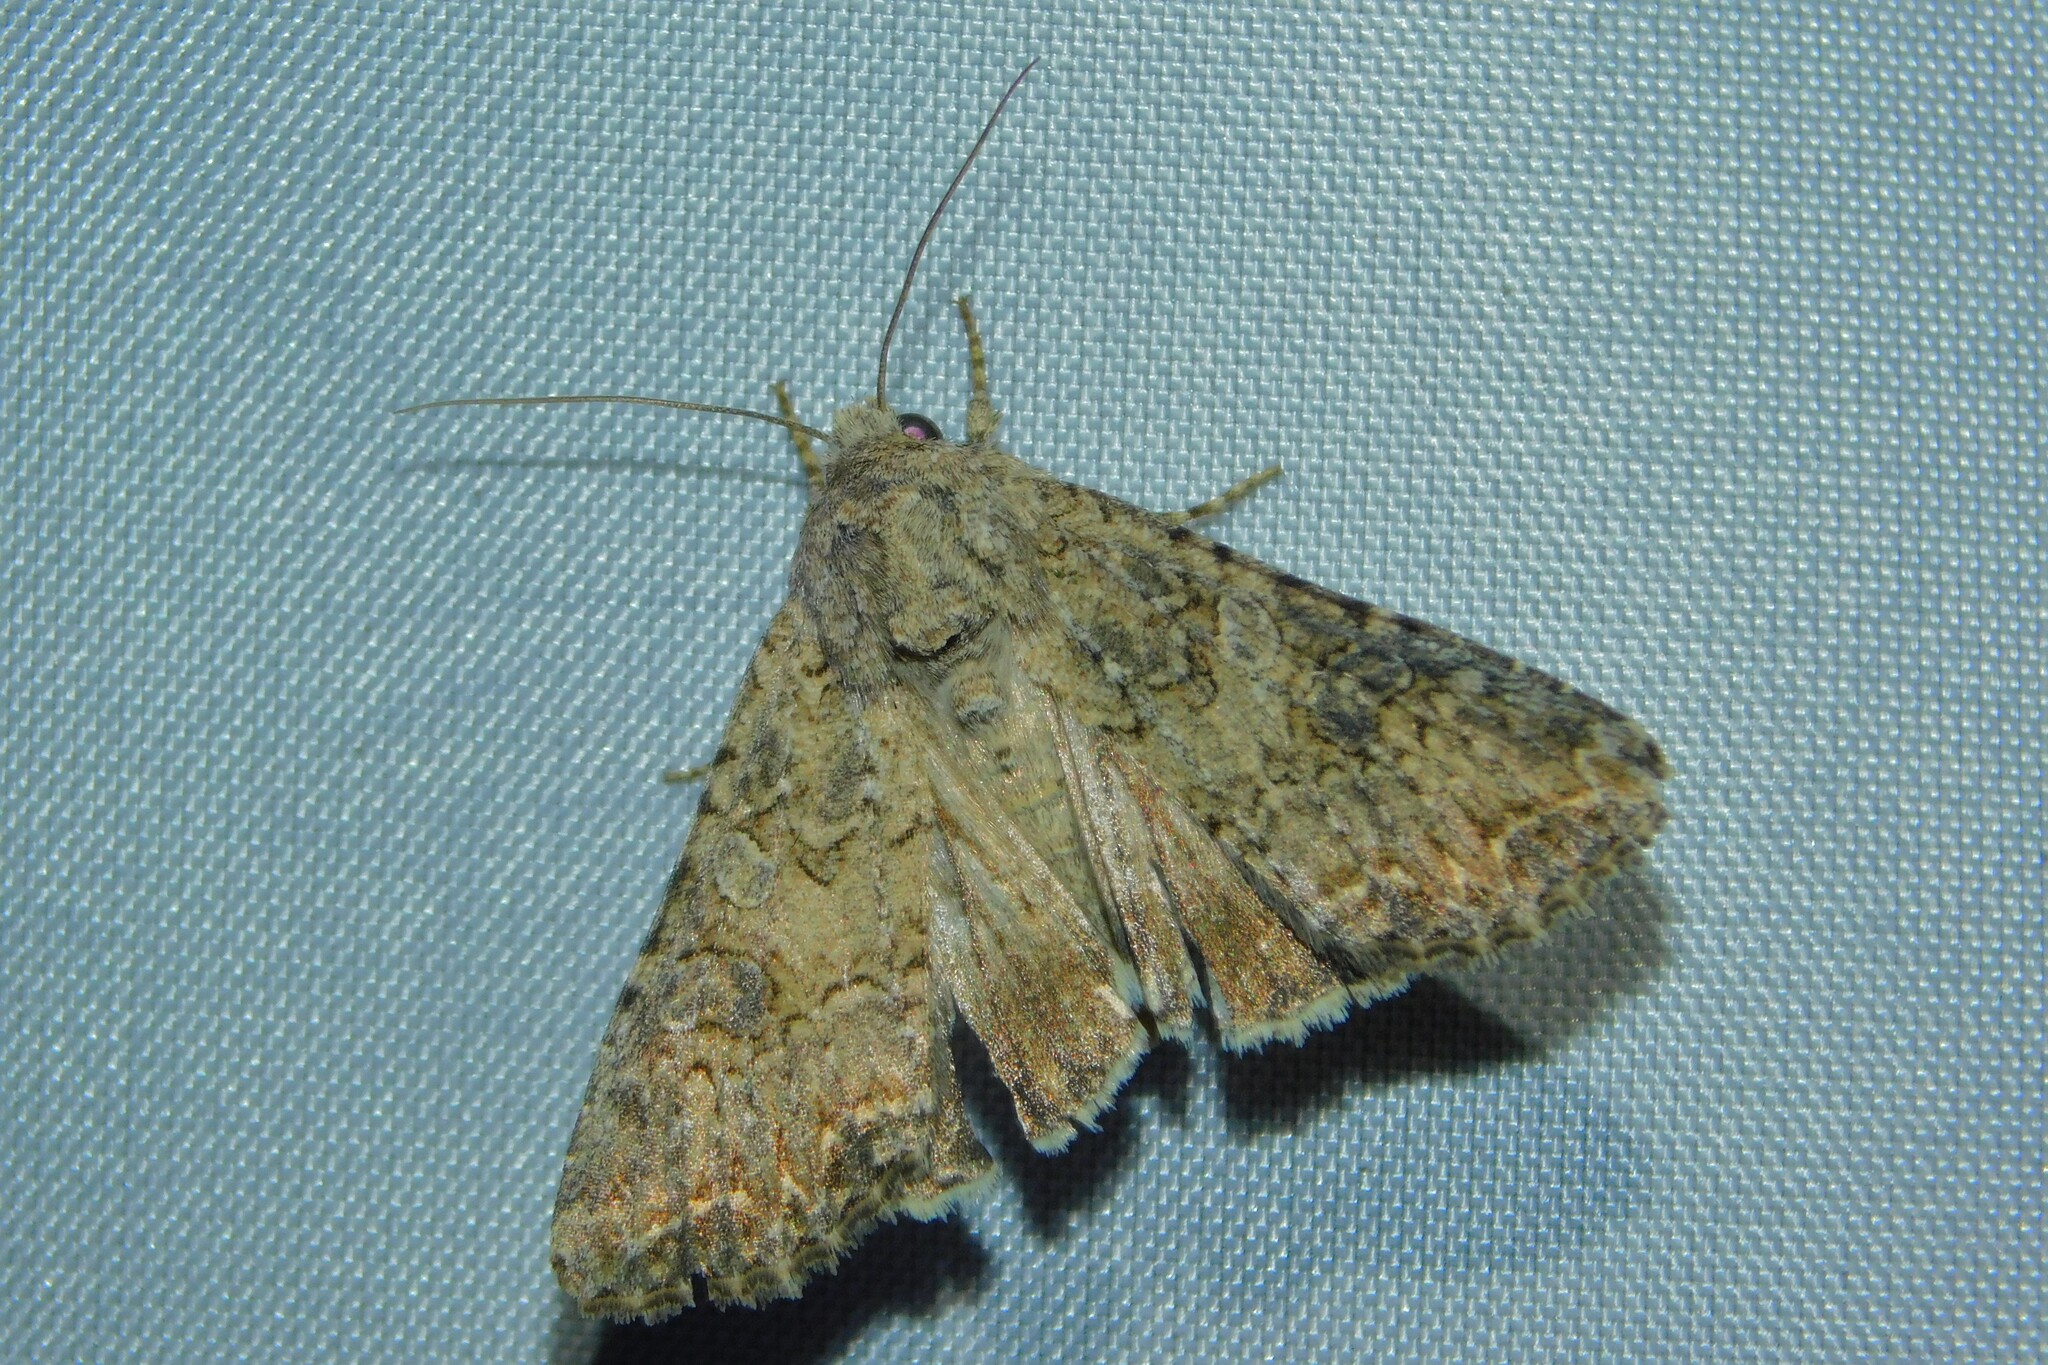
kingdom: Animalia
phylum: Arthropoda
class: Insecta
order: Lepidoptera
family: Noctuidae
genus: Anarta
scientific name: Anarta trifolii
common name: Clover cutworm moth
